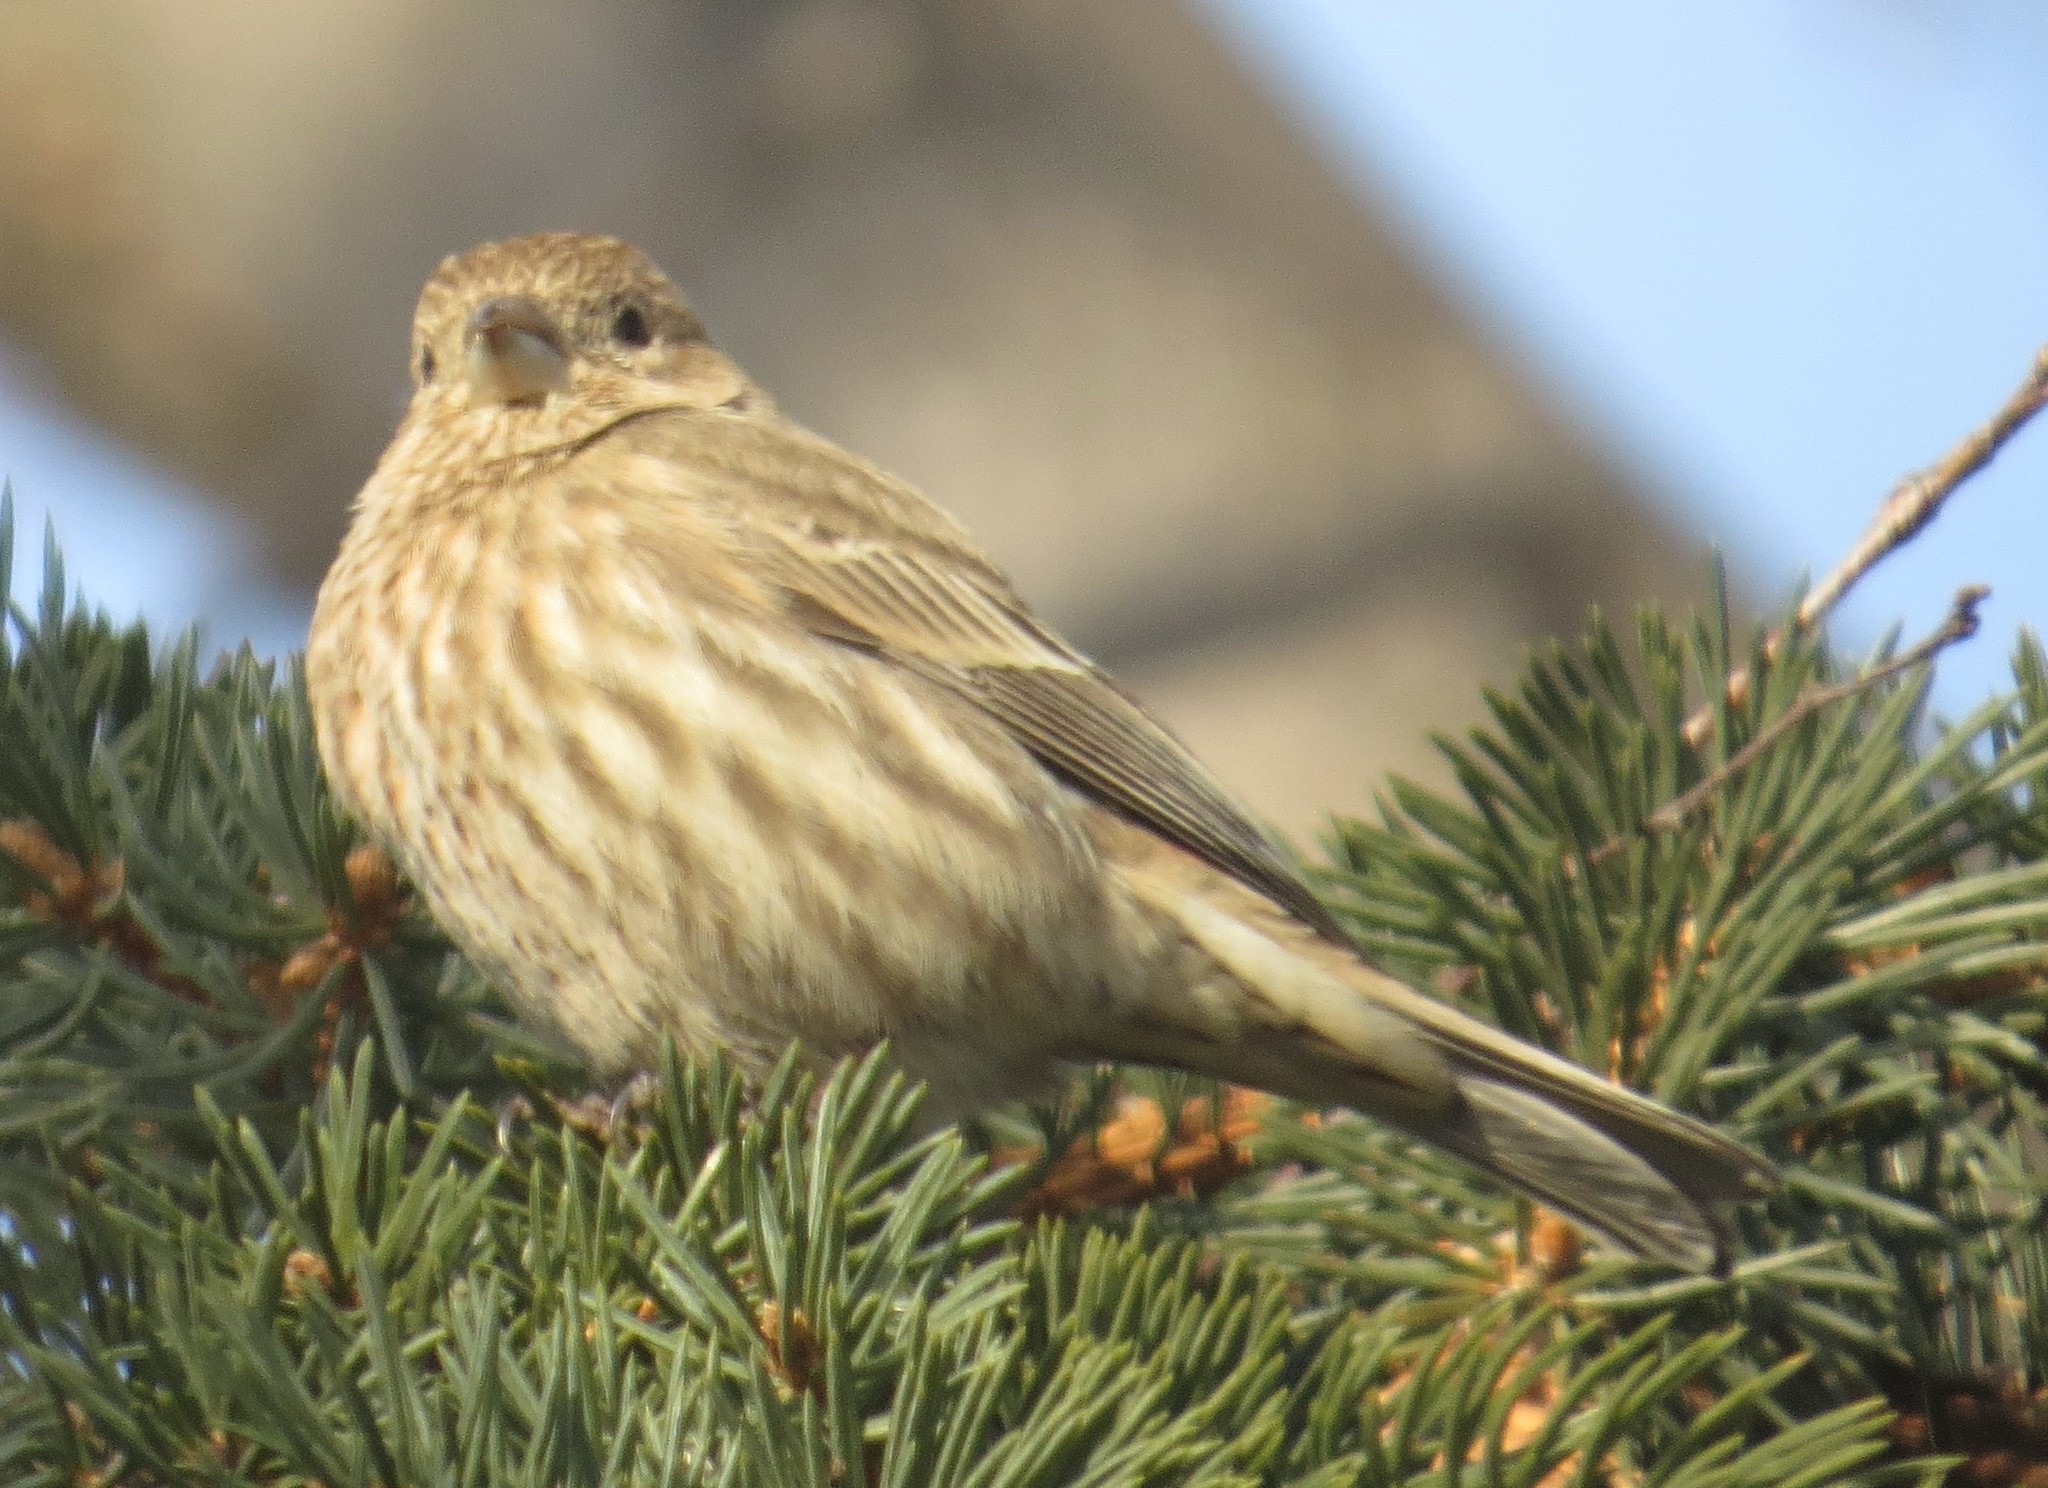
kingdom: Animalia
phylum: Chordata
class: Aves
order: Passeriformes
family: Fringillidae
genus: Haemorhous
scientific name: Haemorhous mexicanus
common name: House finch
